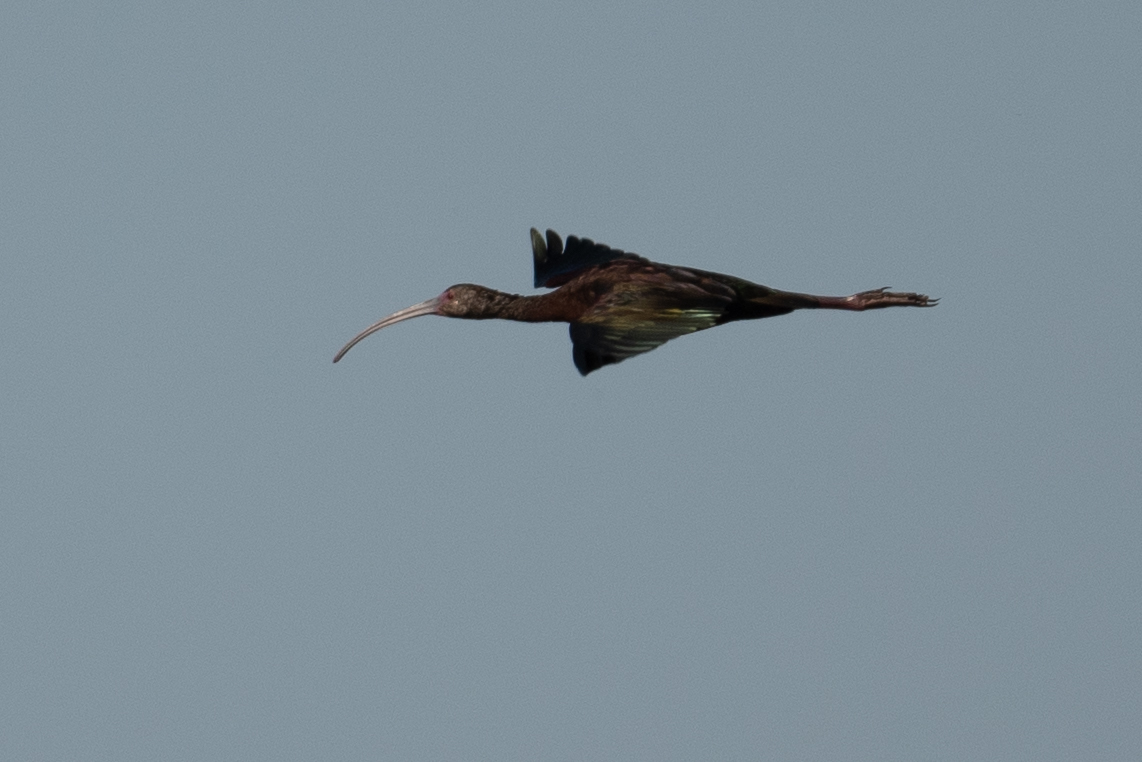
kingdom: Animalia
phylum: Chordata
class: Aves
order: Pelecaniformes
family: Threskiornithidae
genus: Plegadis
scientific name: Plegadis chihi
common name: White-faced ibis
